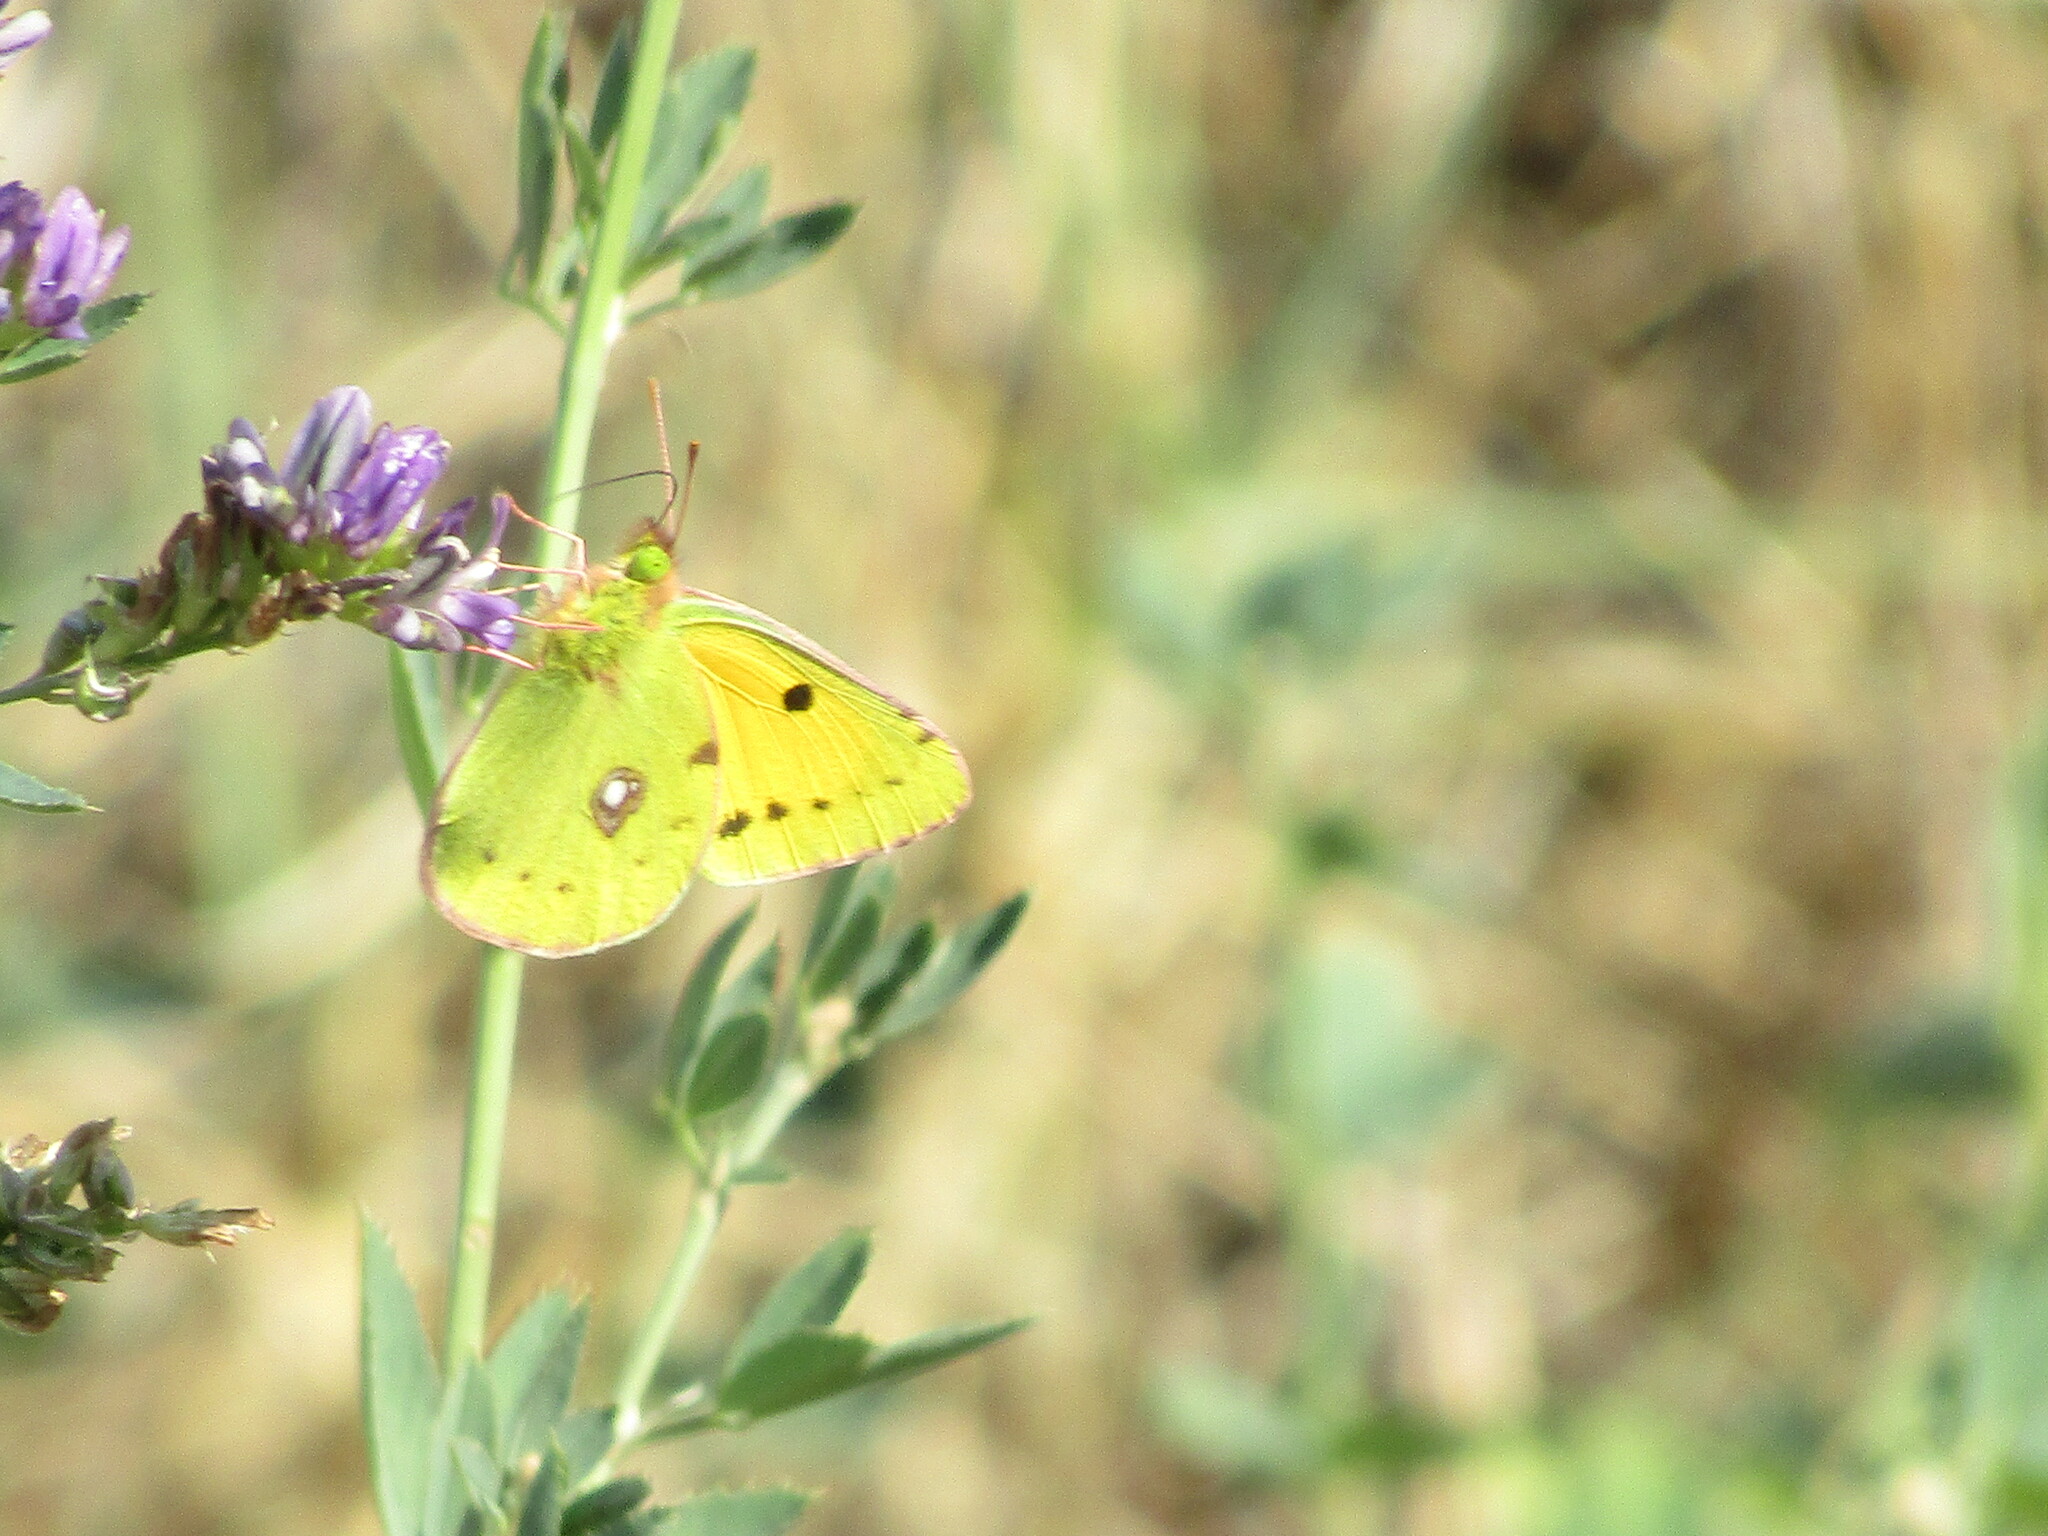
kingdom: Animalia
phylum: Arthropoda
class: Insecta
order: Lepidoptera
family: Pieridae
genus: Colias
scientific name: Colias croceus
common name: Clouded yellow
